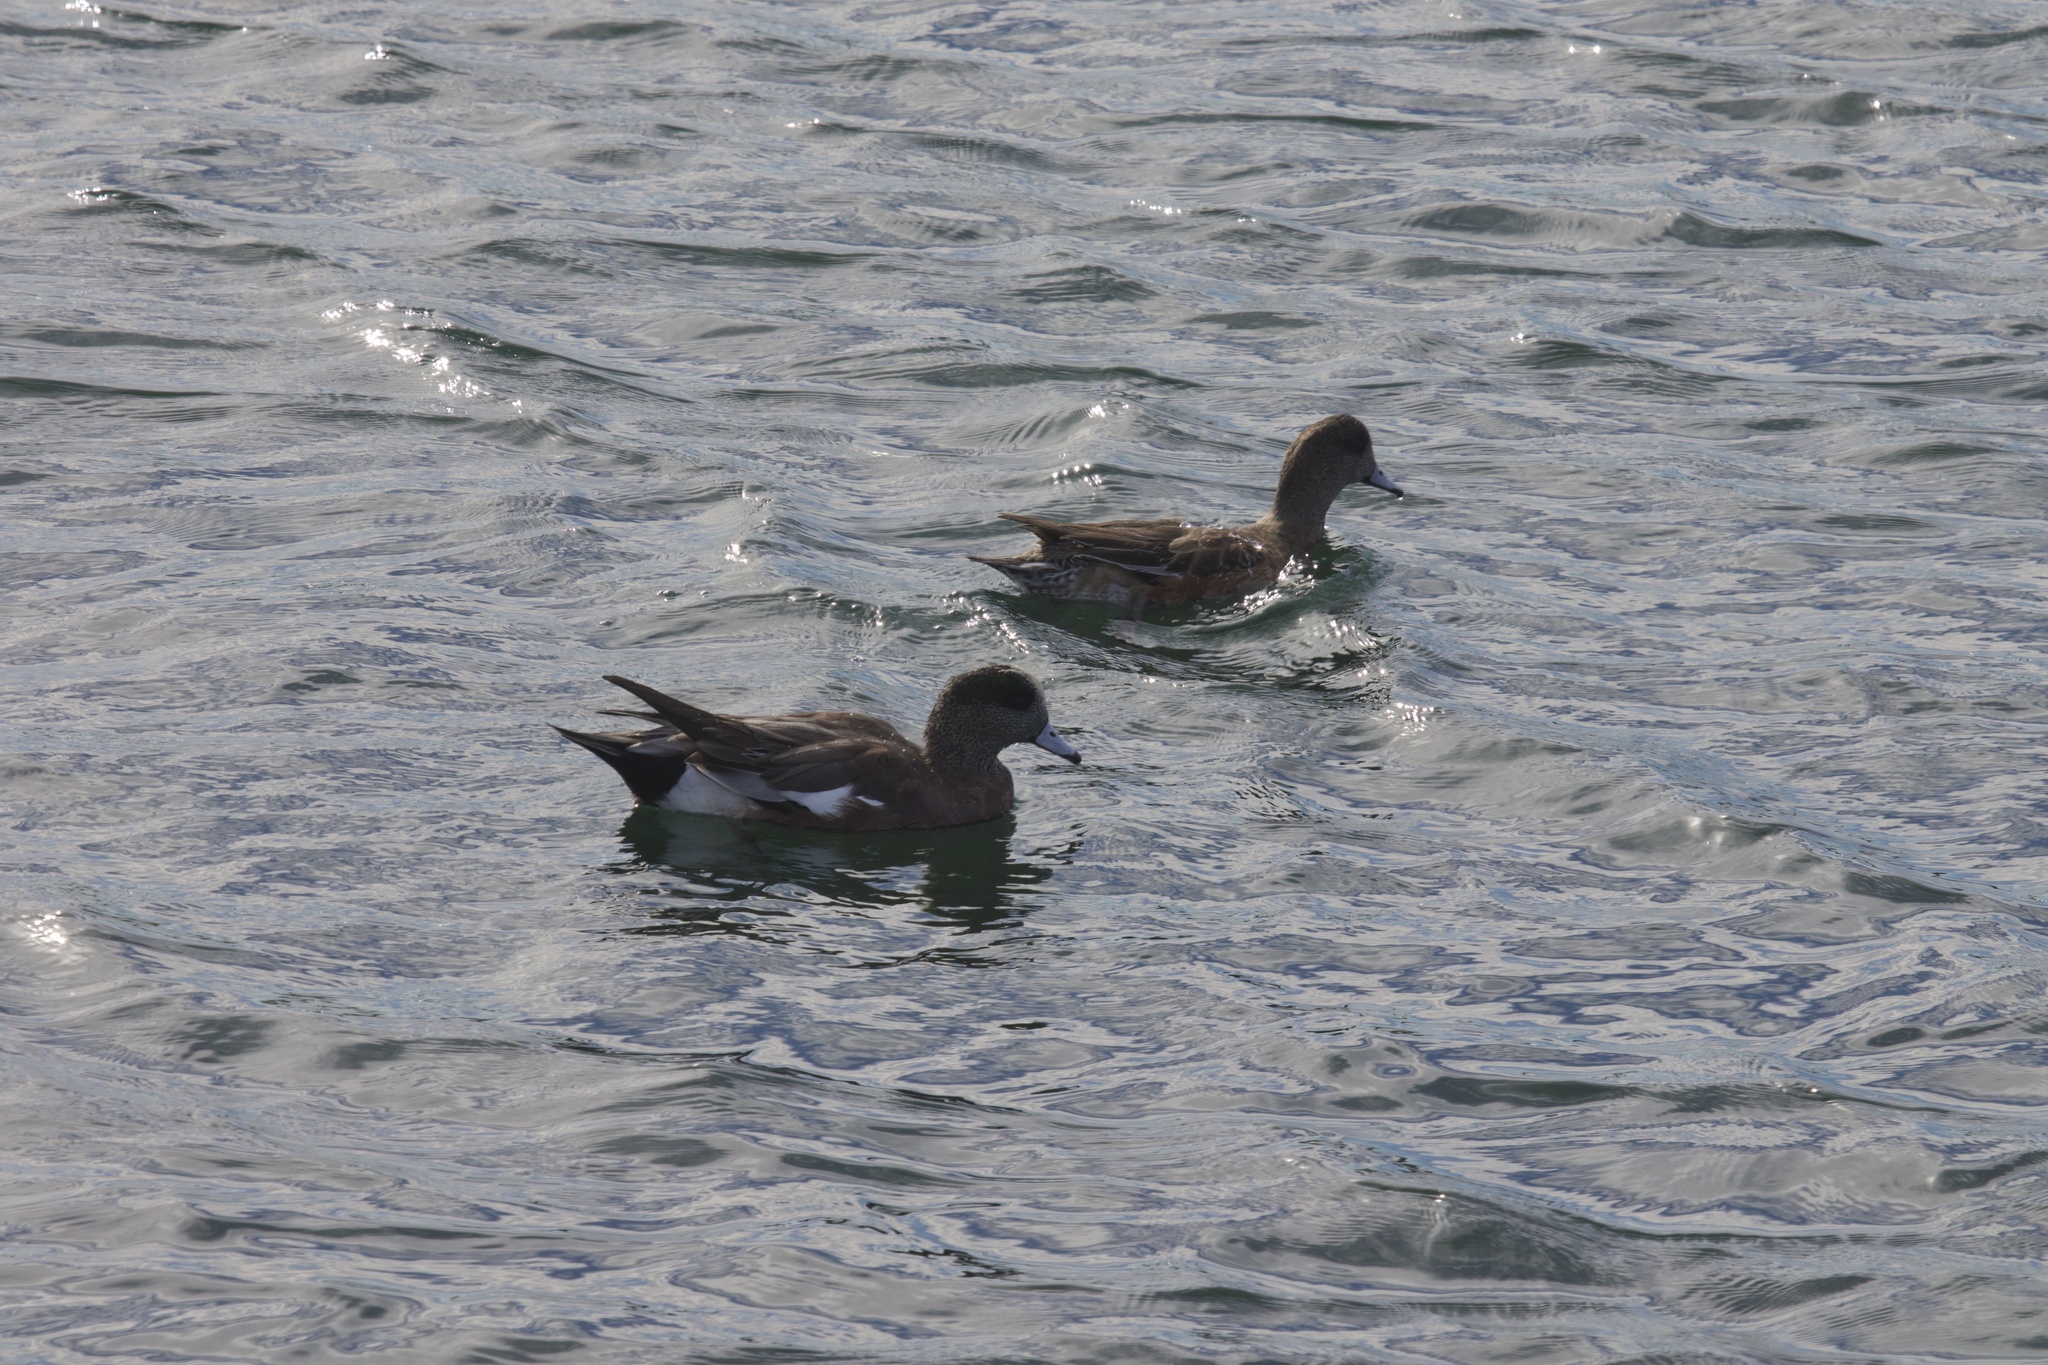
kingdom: Animalia
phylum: Chordata
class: Aves
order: Anseriformes
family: Anatidae
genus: Mareca
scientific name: Mareca americana
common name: American wigeon
